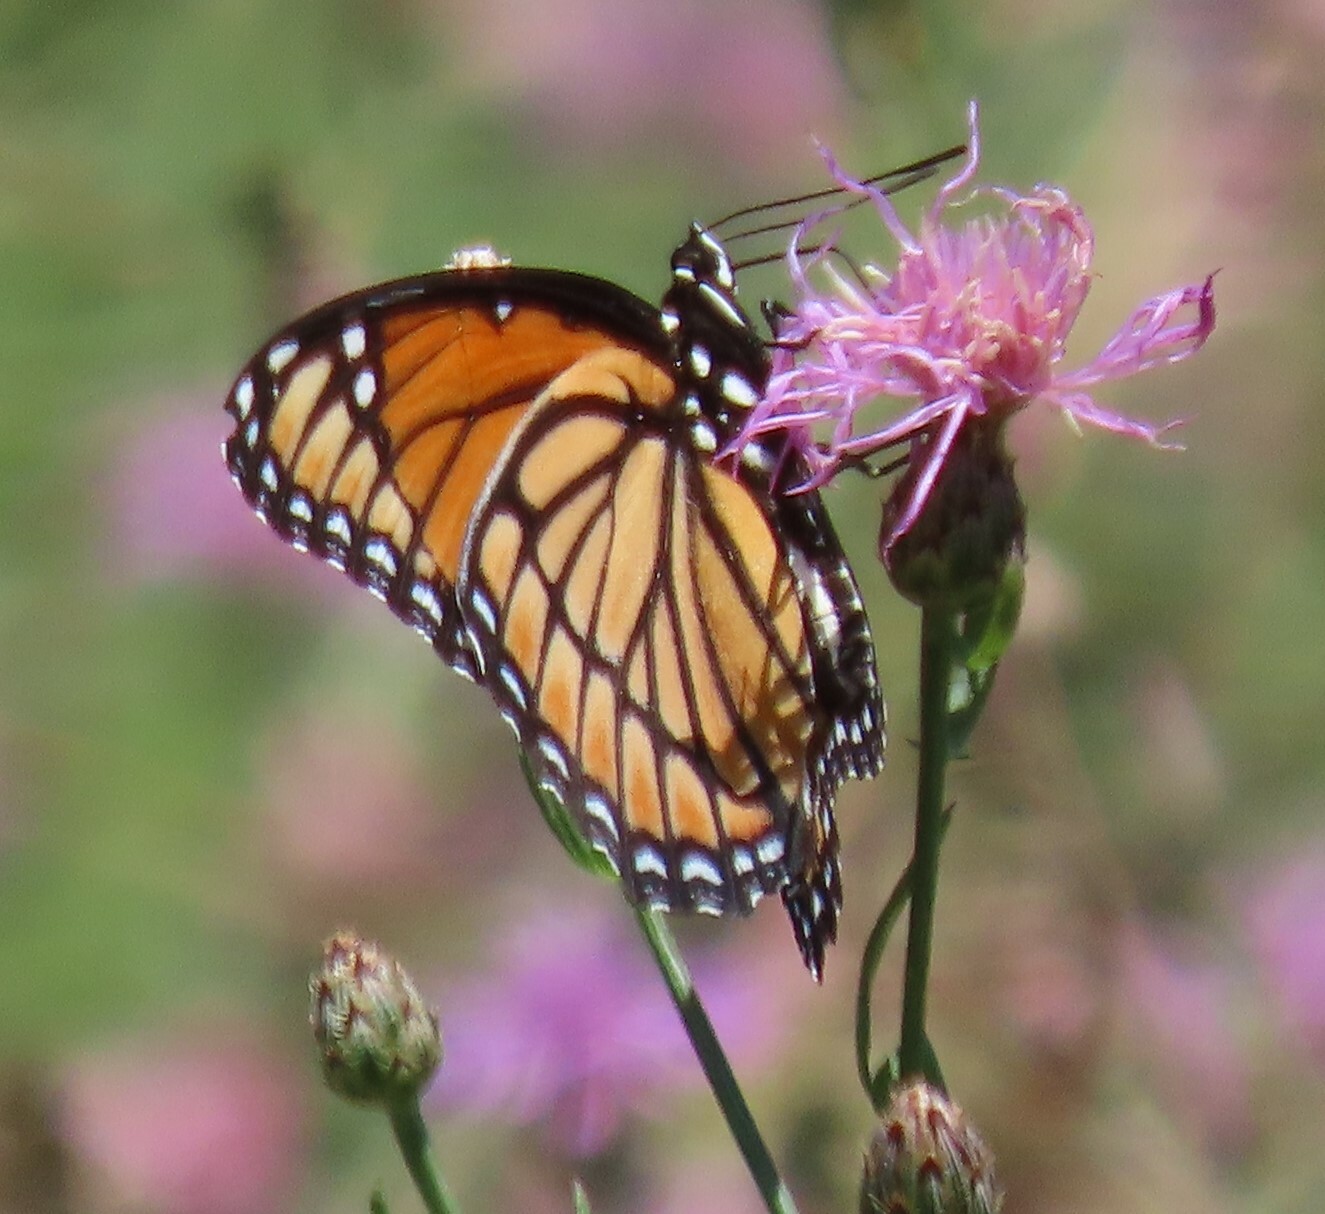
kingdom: Animalia
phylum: Arthropoda
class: Insecta
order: Lepidoptera
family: Nymphalidae
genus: Limenitis
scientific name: Limenitis archippus
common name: Viceroy
